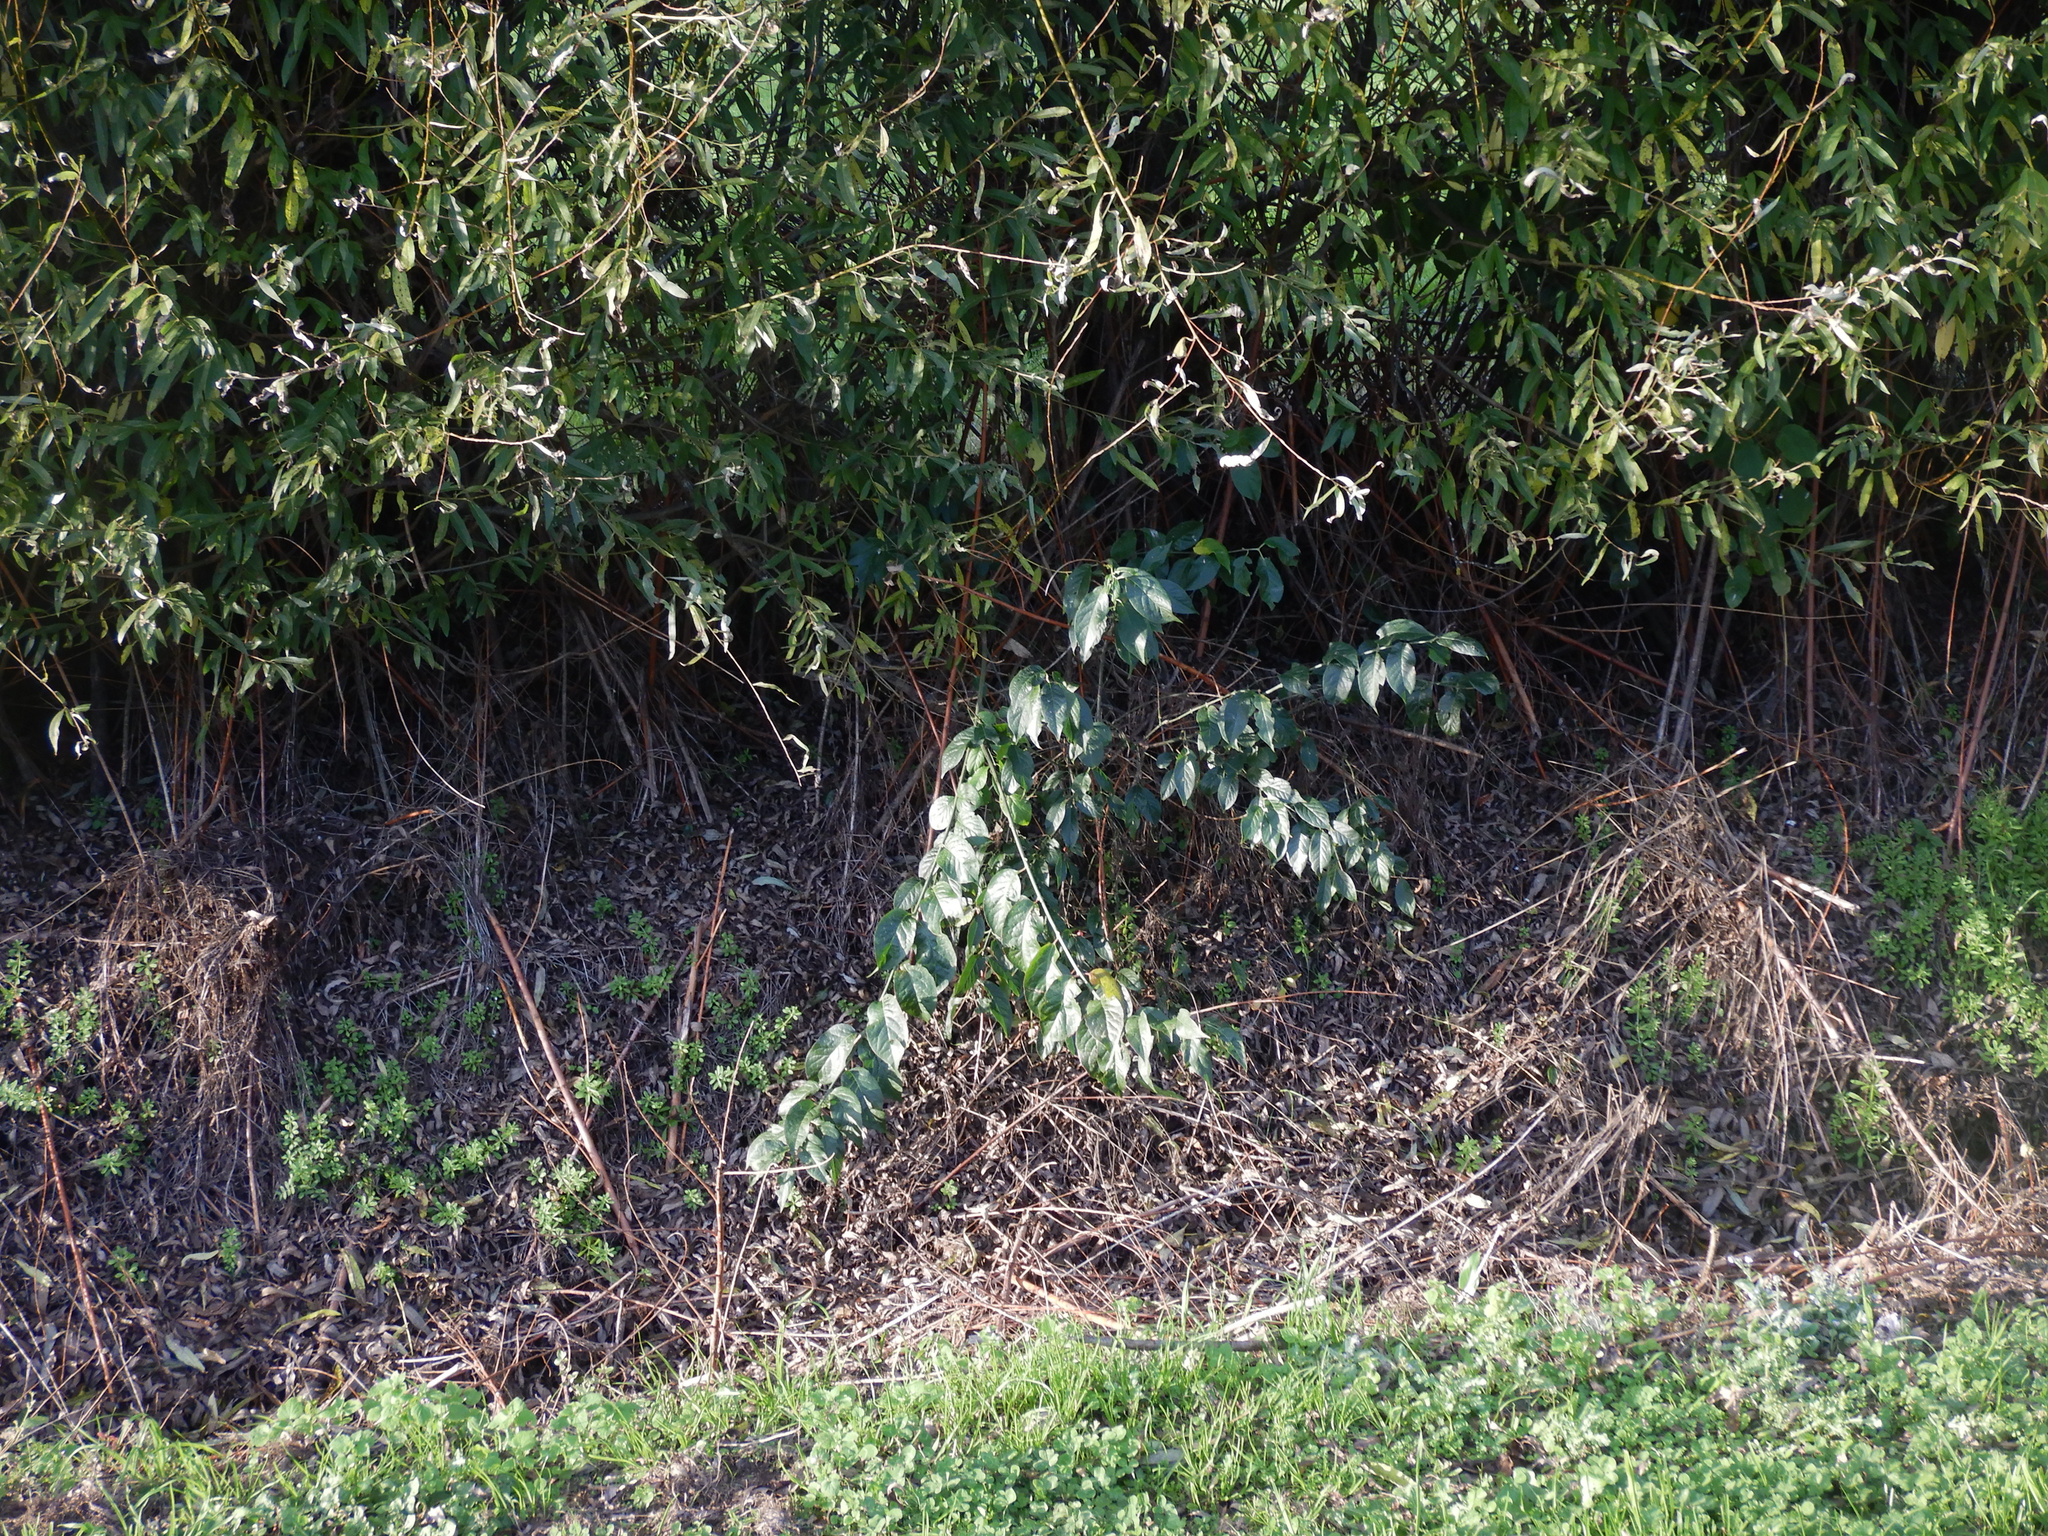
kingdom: Plantae
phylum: Tracheophyta
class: Magnoliopsida
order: Celastrales
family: Celastraceae
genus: Euonymus
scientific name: Euonymus europaeus
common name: Spindle
